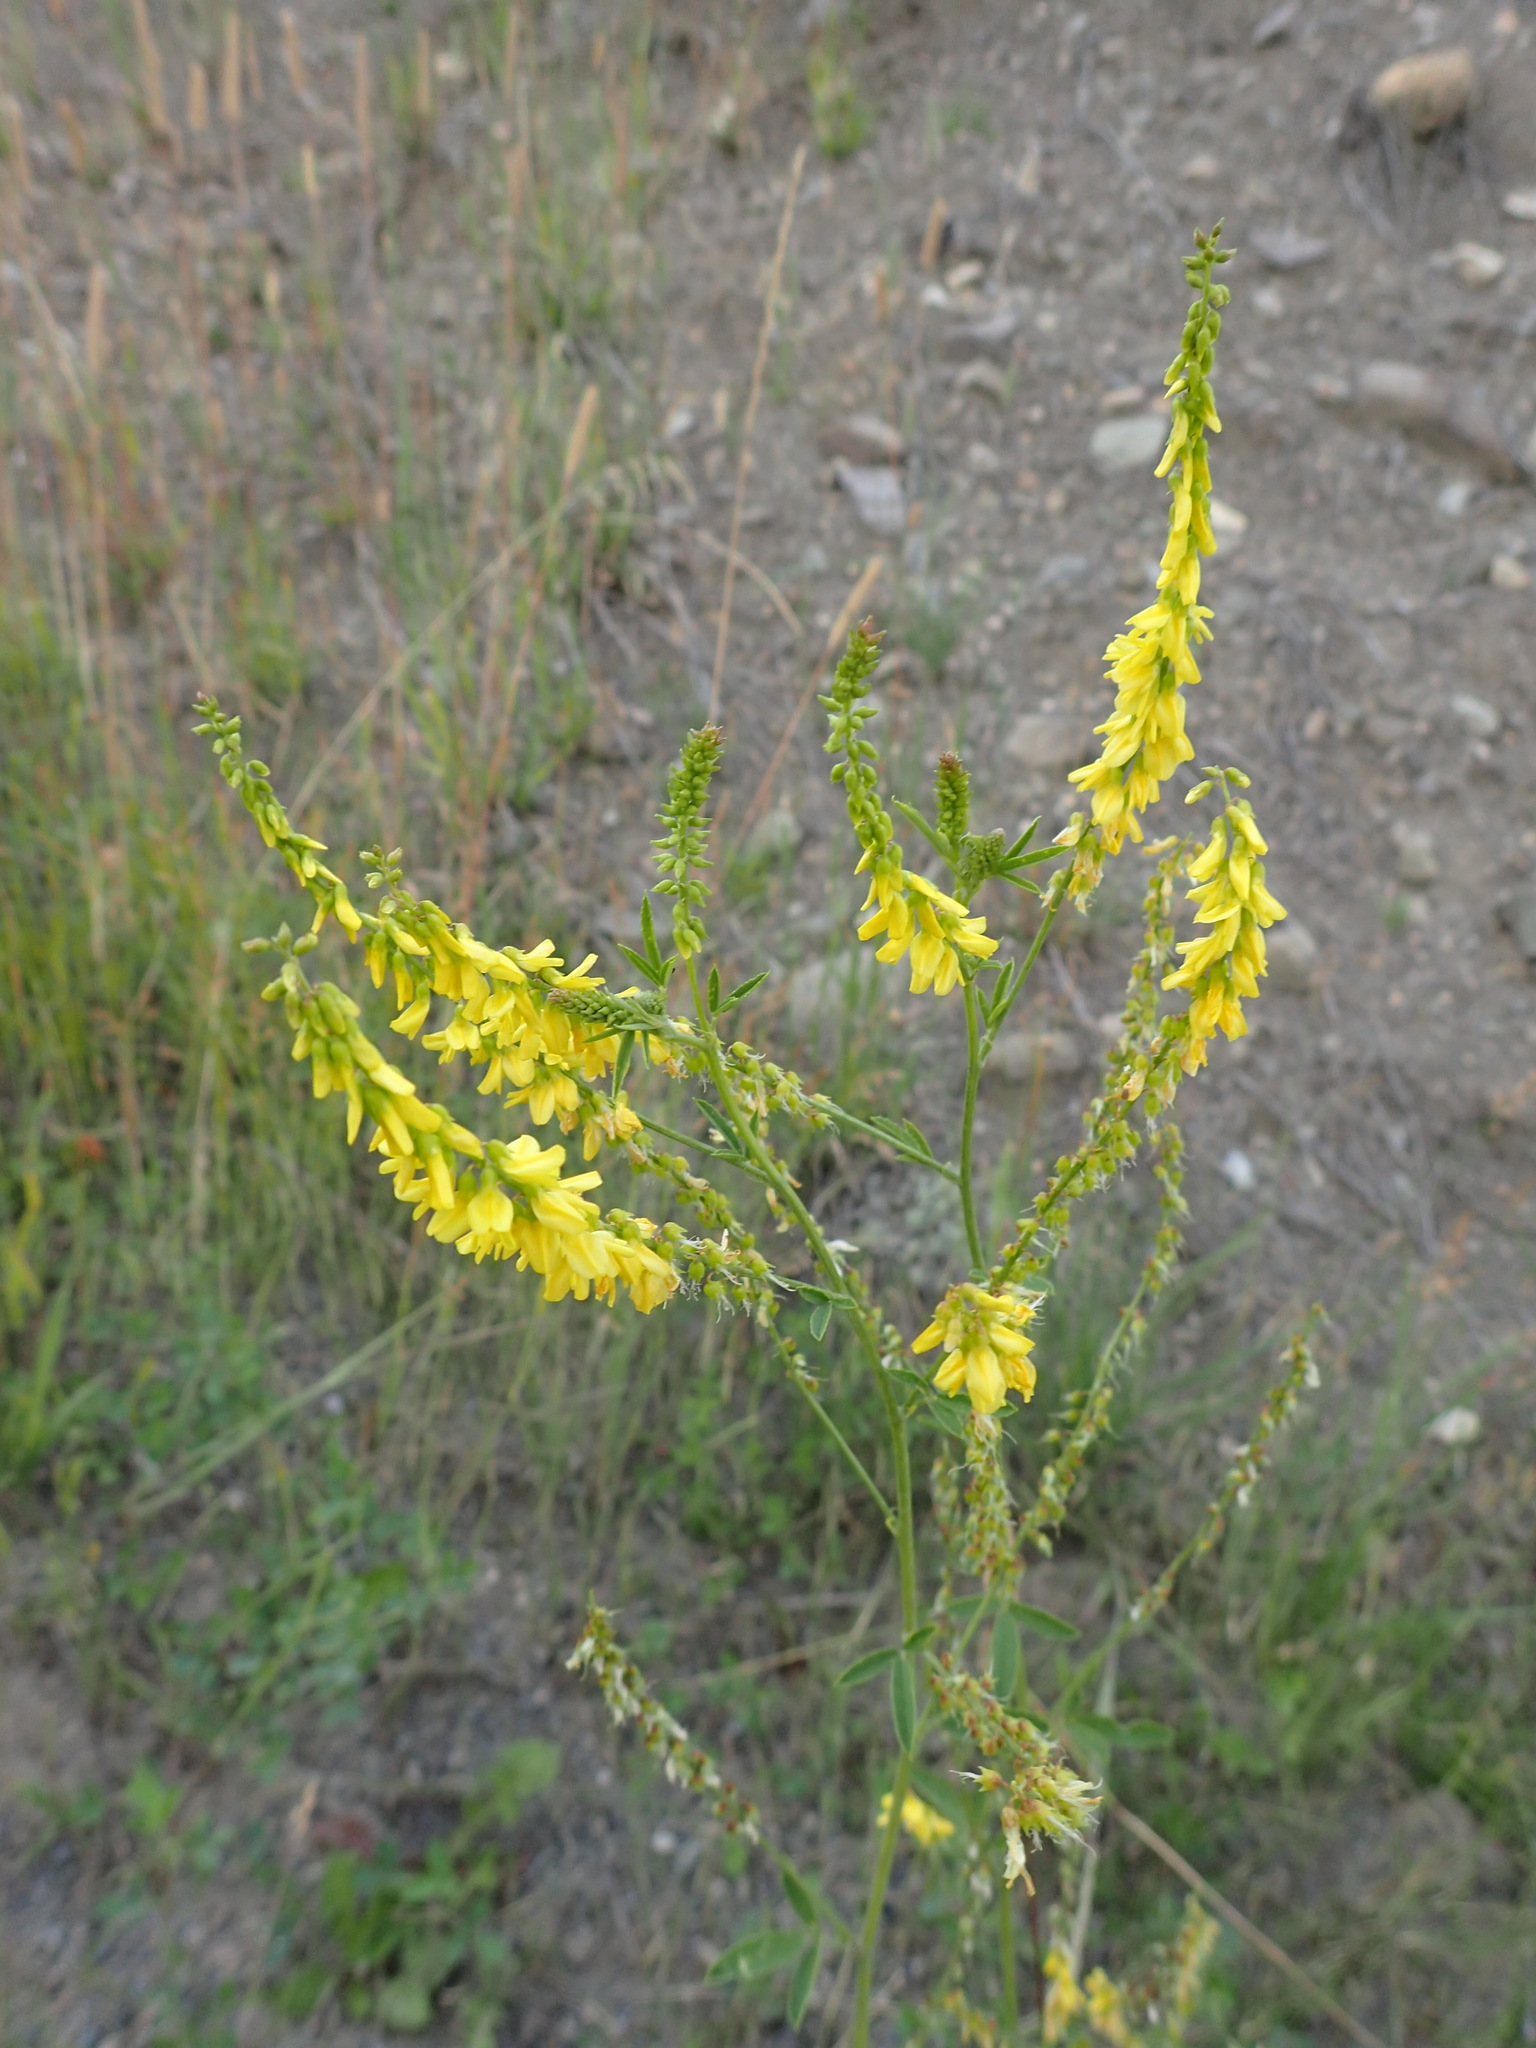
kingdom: Plantae
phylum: Tracheophyta
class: Magnoliopsida
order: Fabales
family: Fabaceae
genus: Melilotus
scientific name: Melilotus officinalis
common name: Sweetclover
